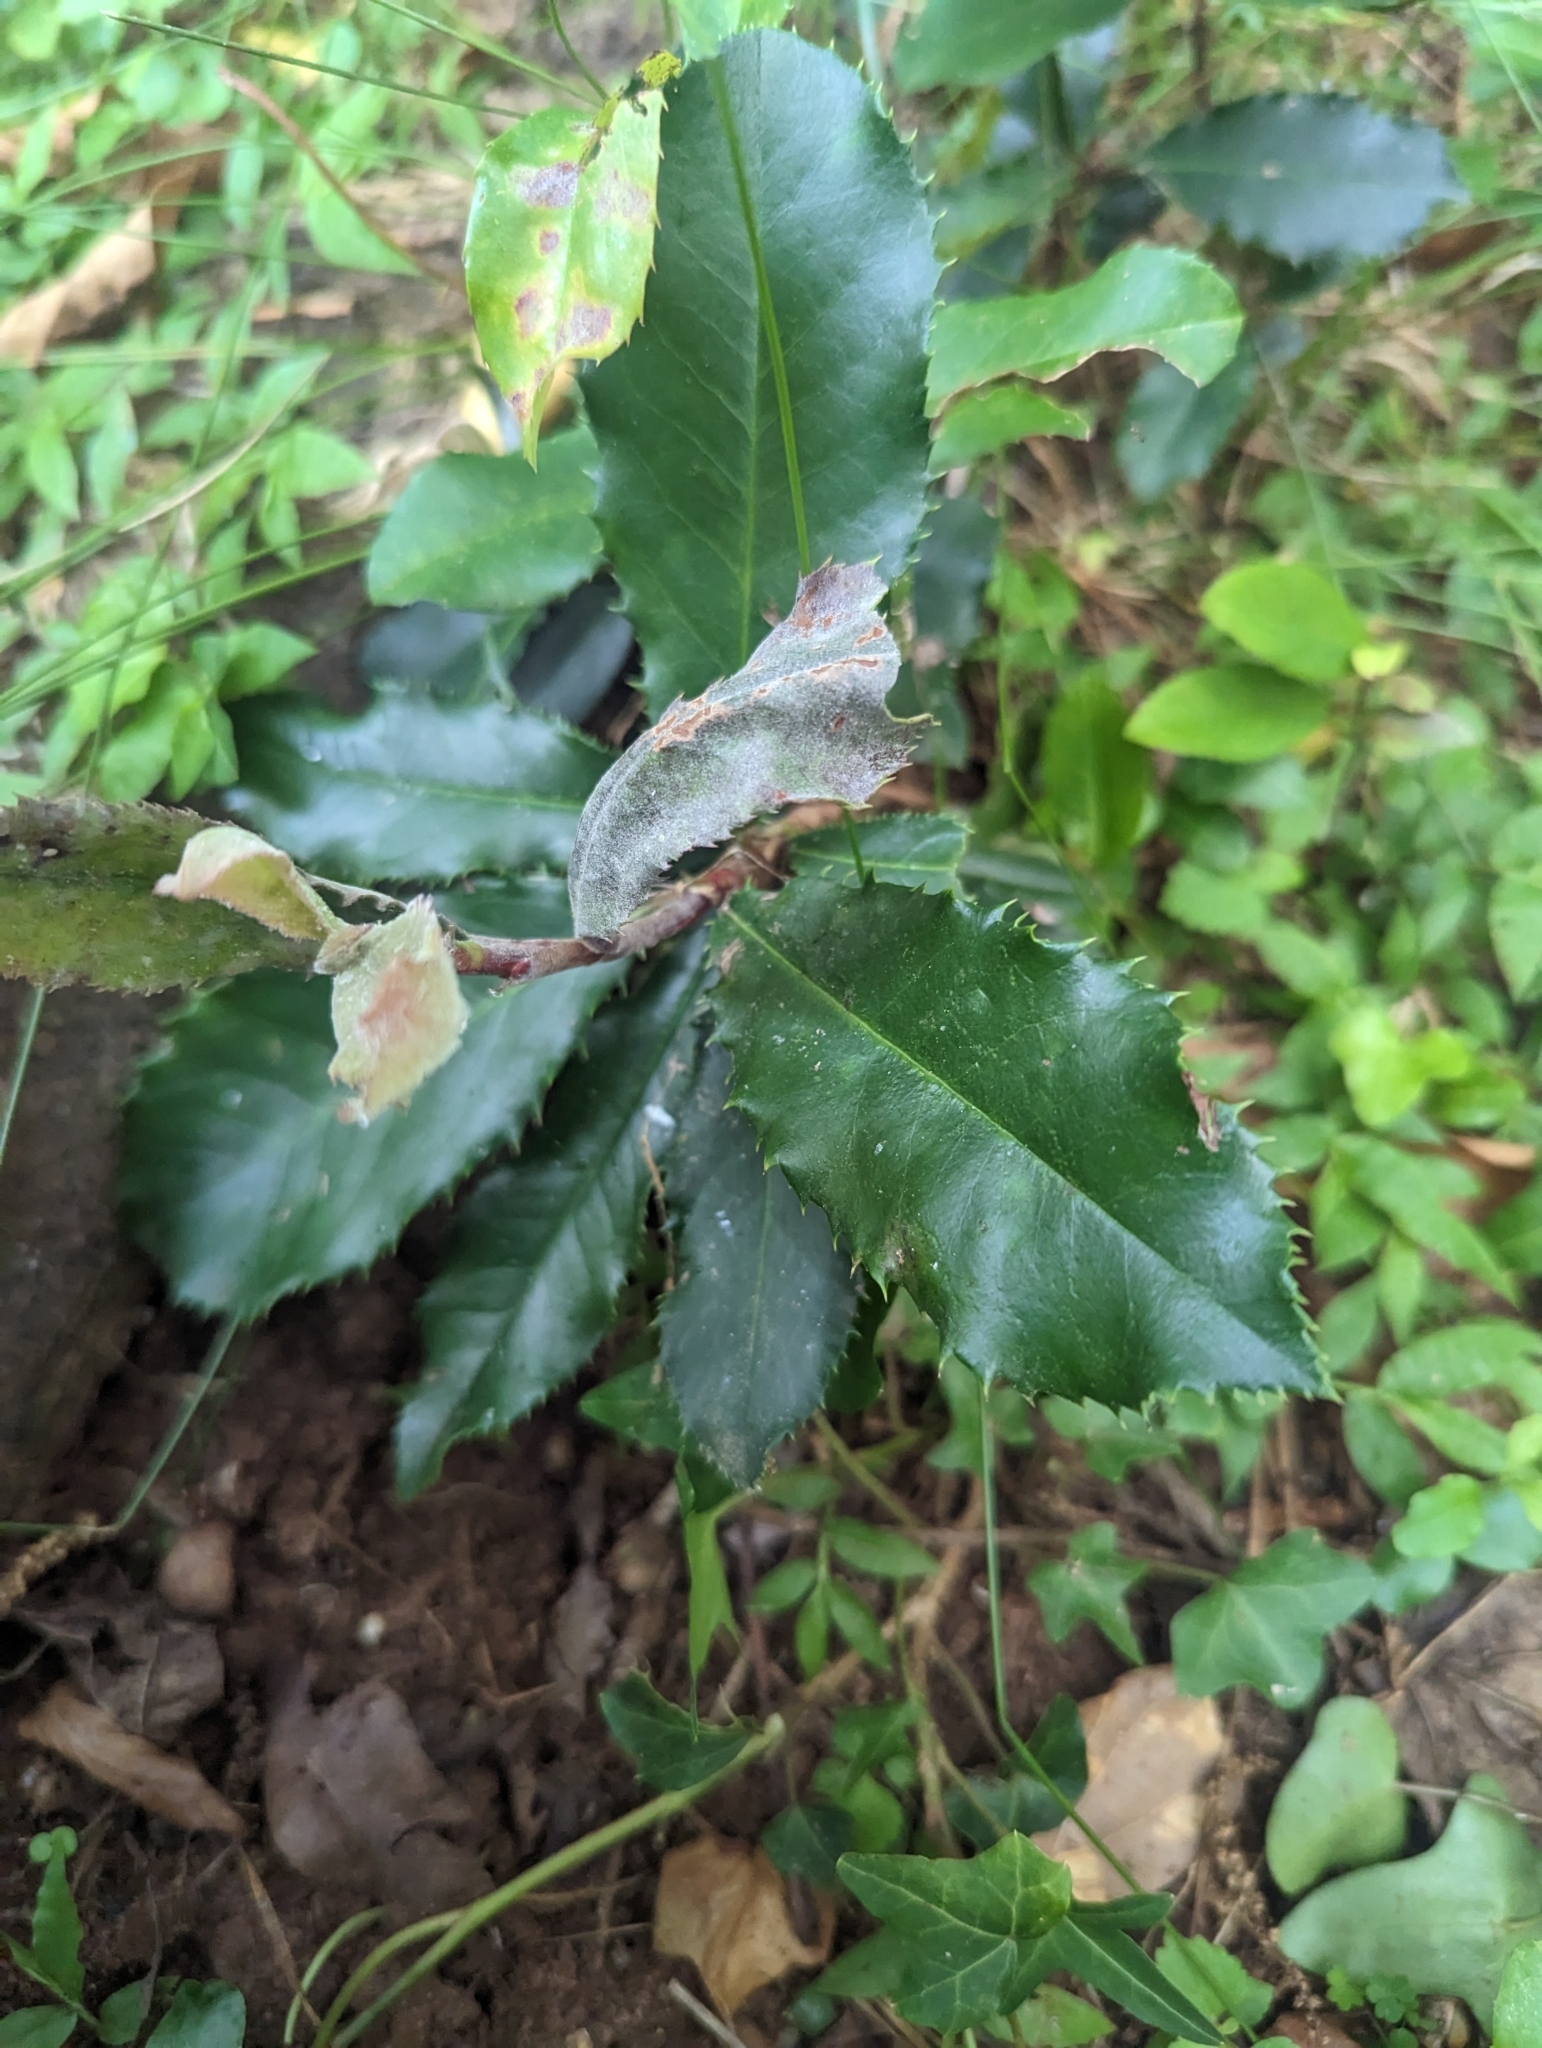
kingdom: Plantae
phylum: Tracheophyta
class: Magnoliopsida
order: Rosales
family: Rosaceae
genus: Photinia
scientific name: Photinia serratifolia
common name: Taiwanese photinia
